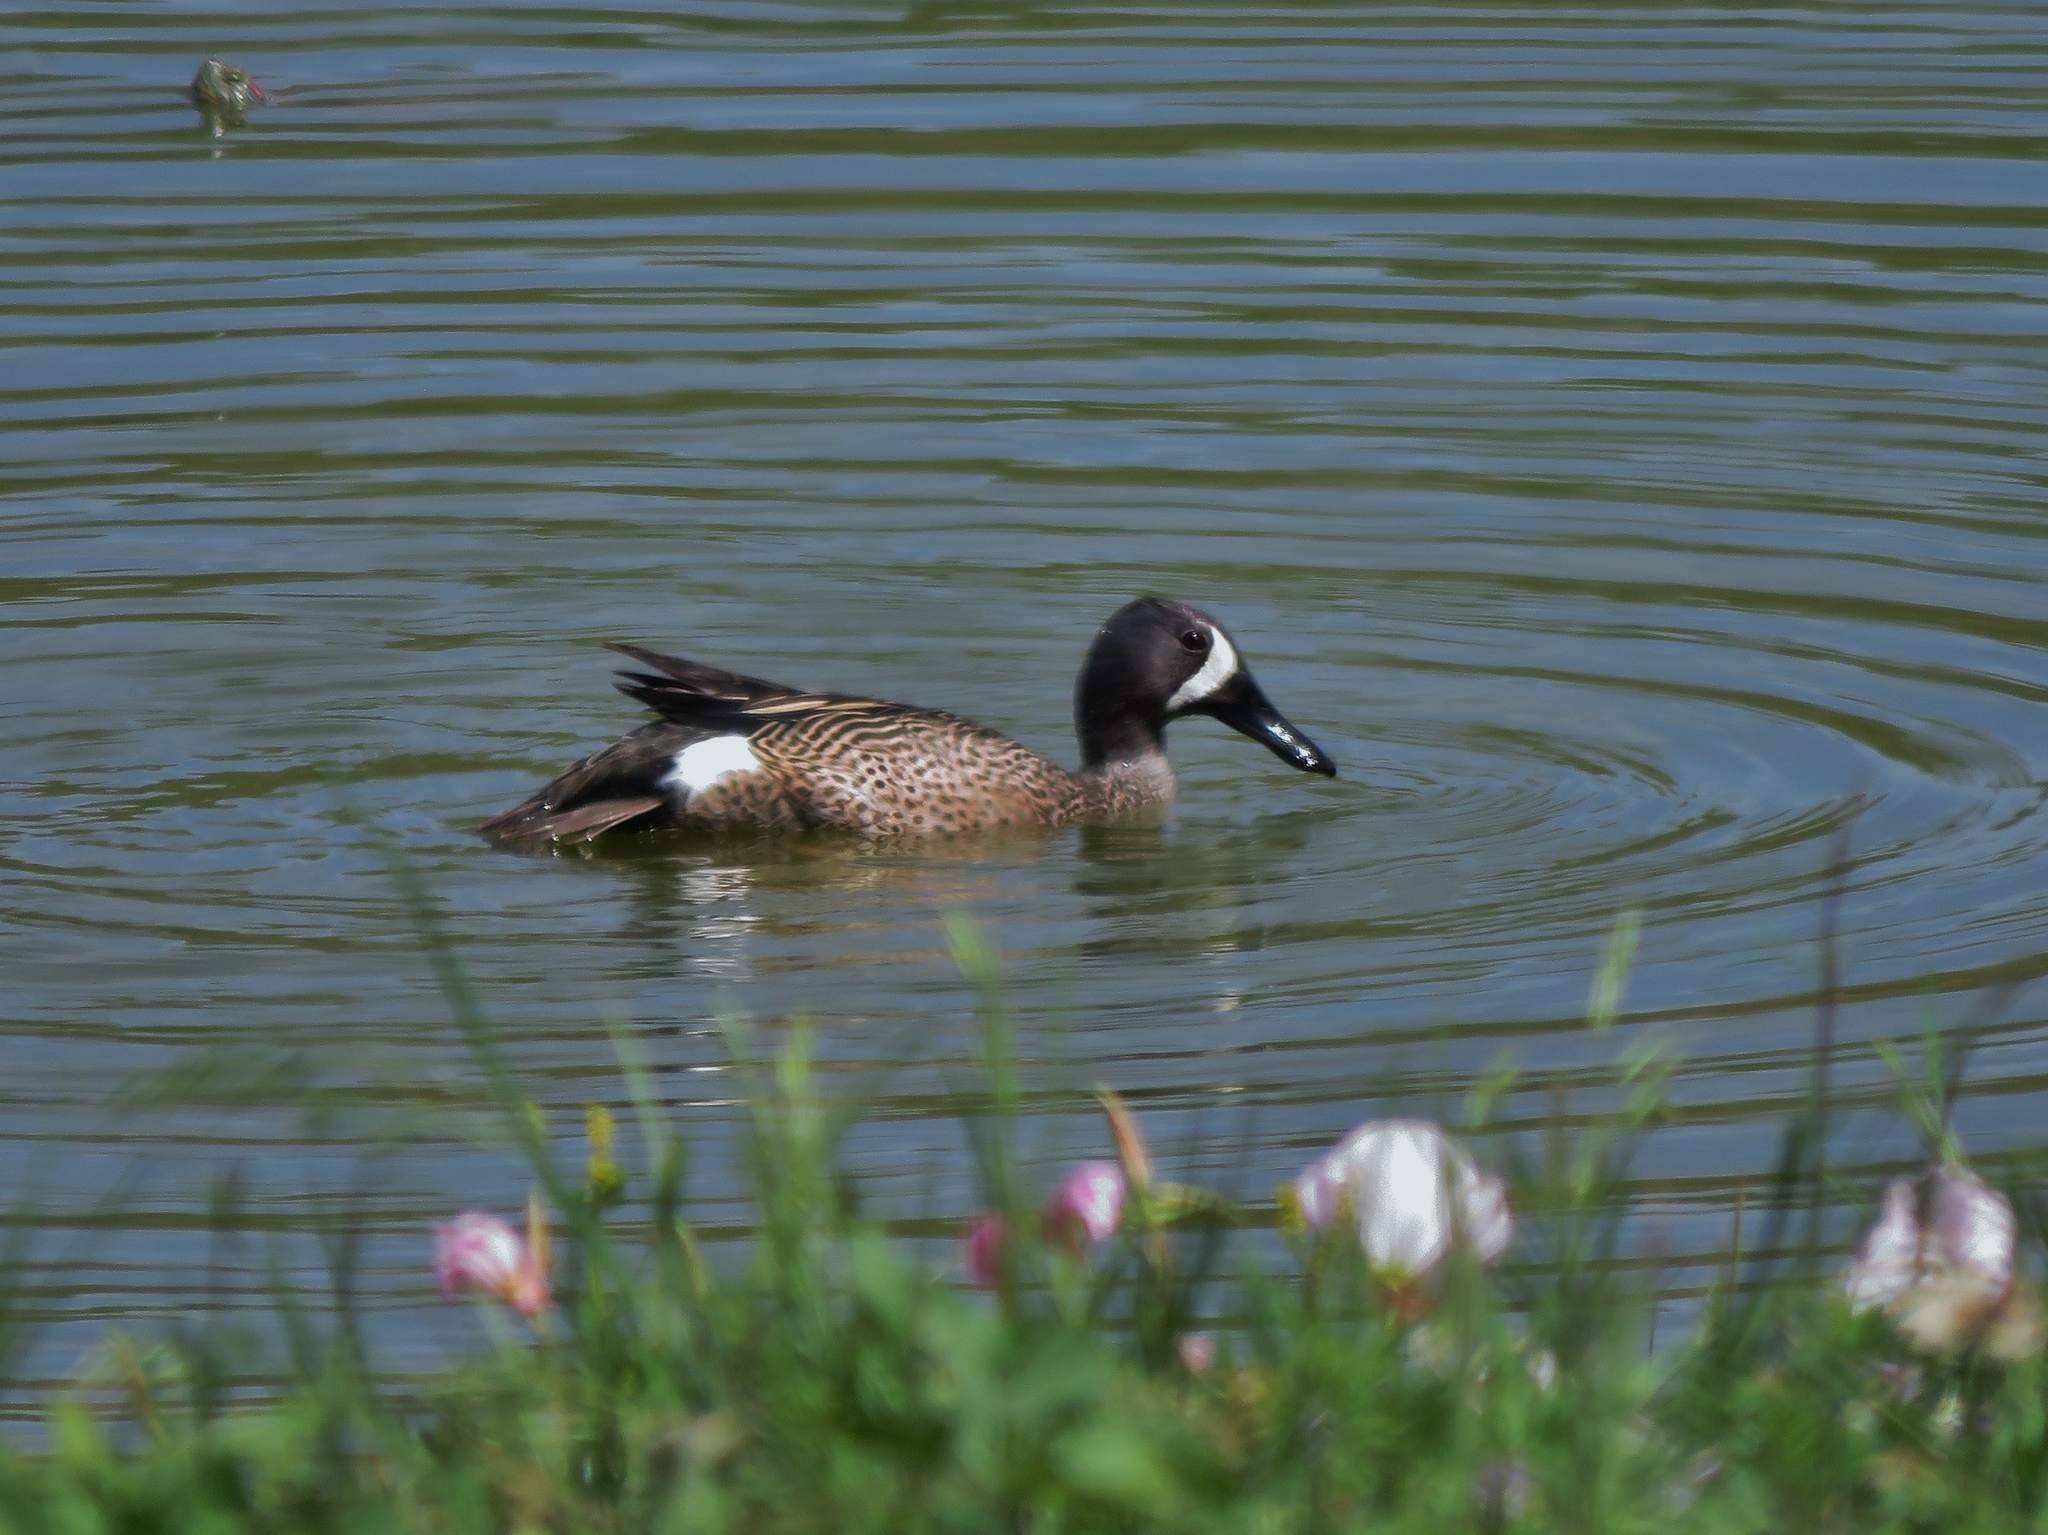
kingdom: Animalia
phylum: Chordata
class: Aves
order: Anseriformes
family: Anatidae
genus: Spatula
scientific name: Spatula discors
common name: Blue-winged teal
